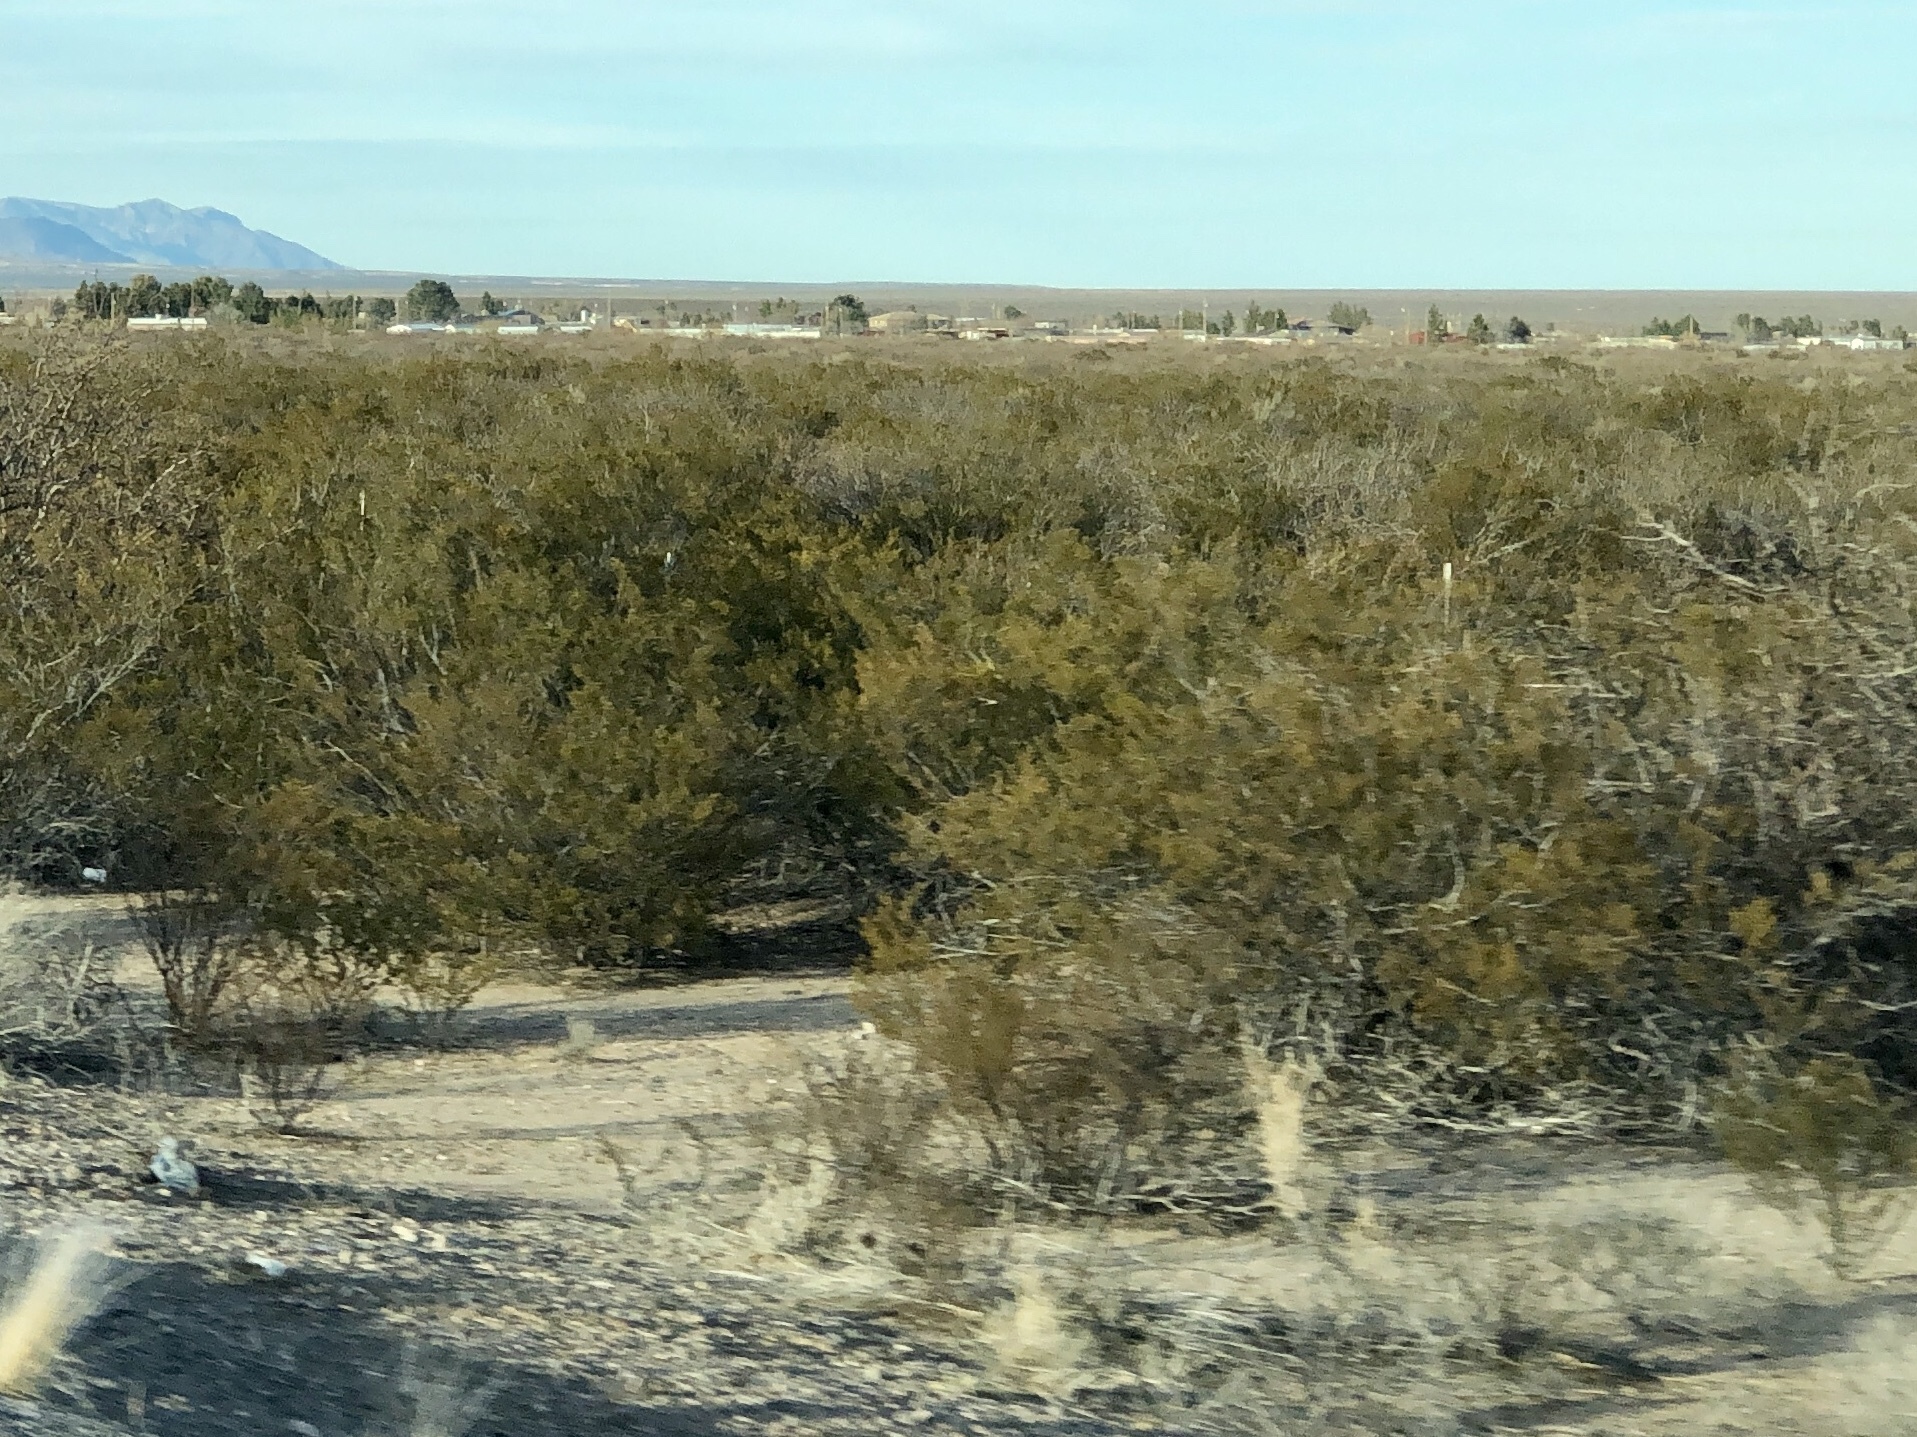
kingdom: Plantae
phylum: Tracheophyta
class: Magnoliopsida
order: Zygophyllales
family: Zygophyllaceae
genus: Larrea
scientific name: Larrea tridentata
